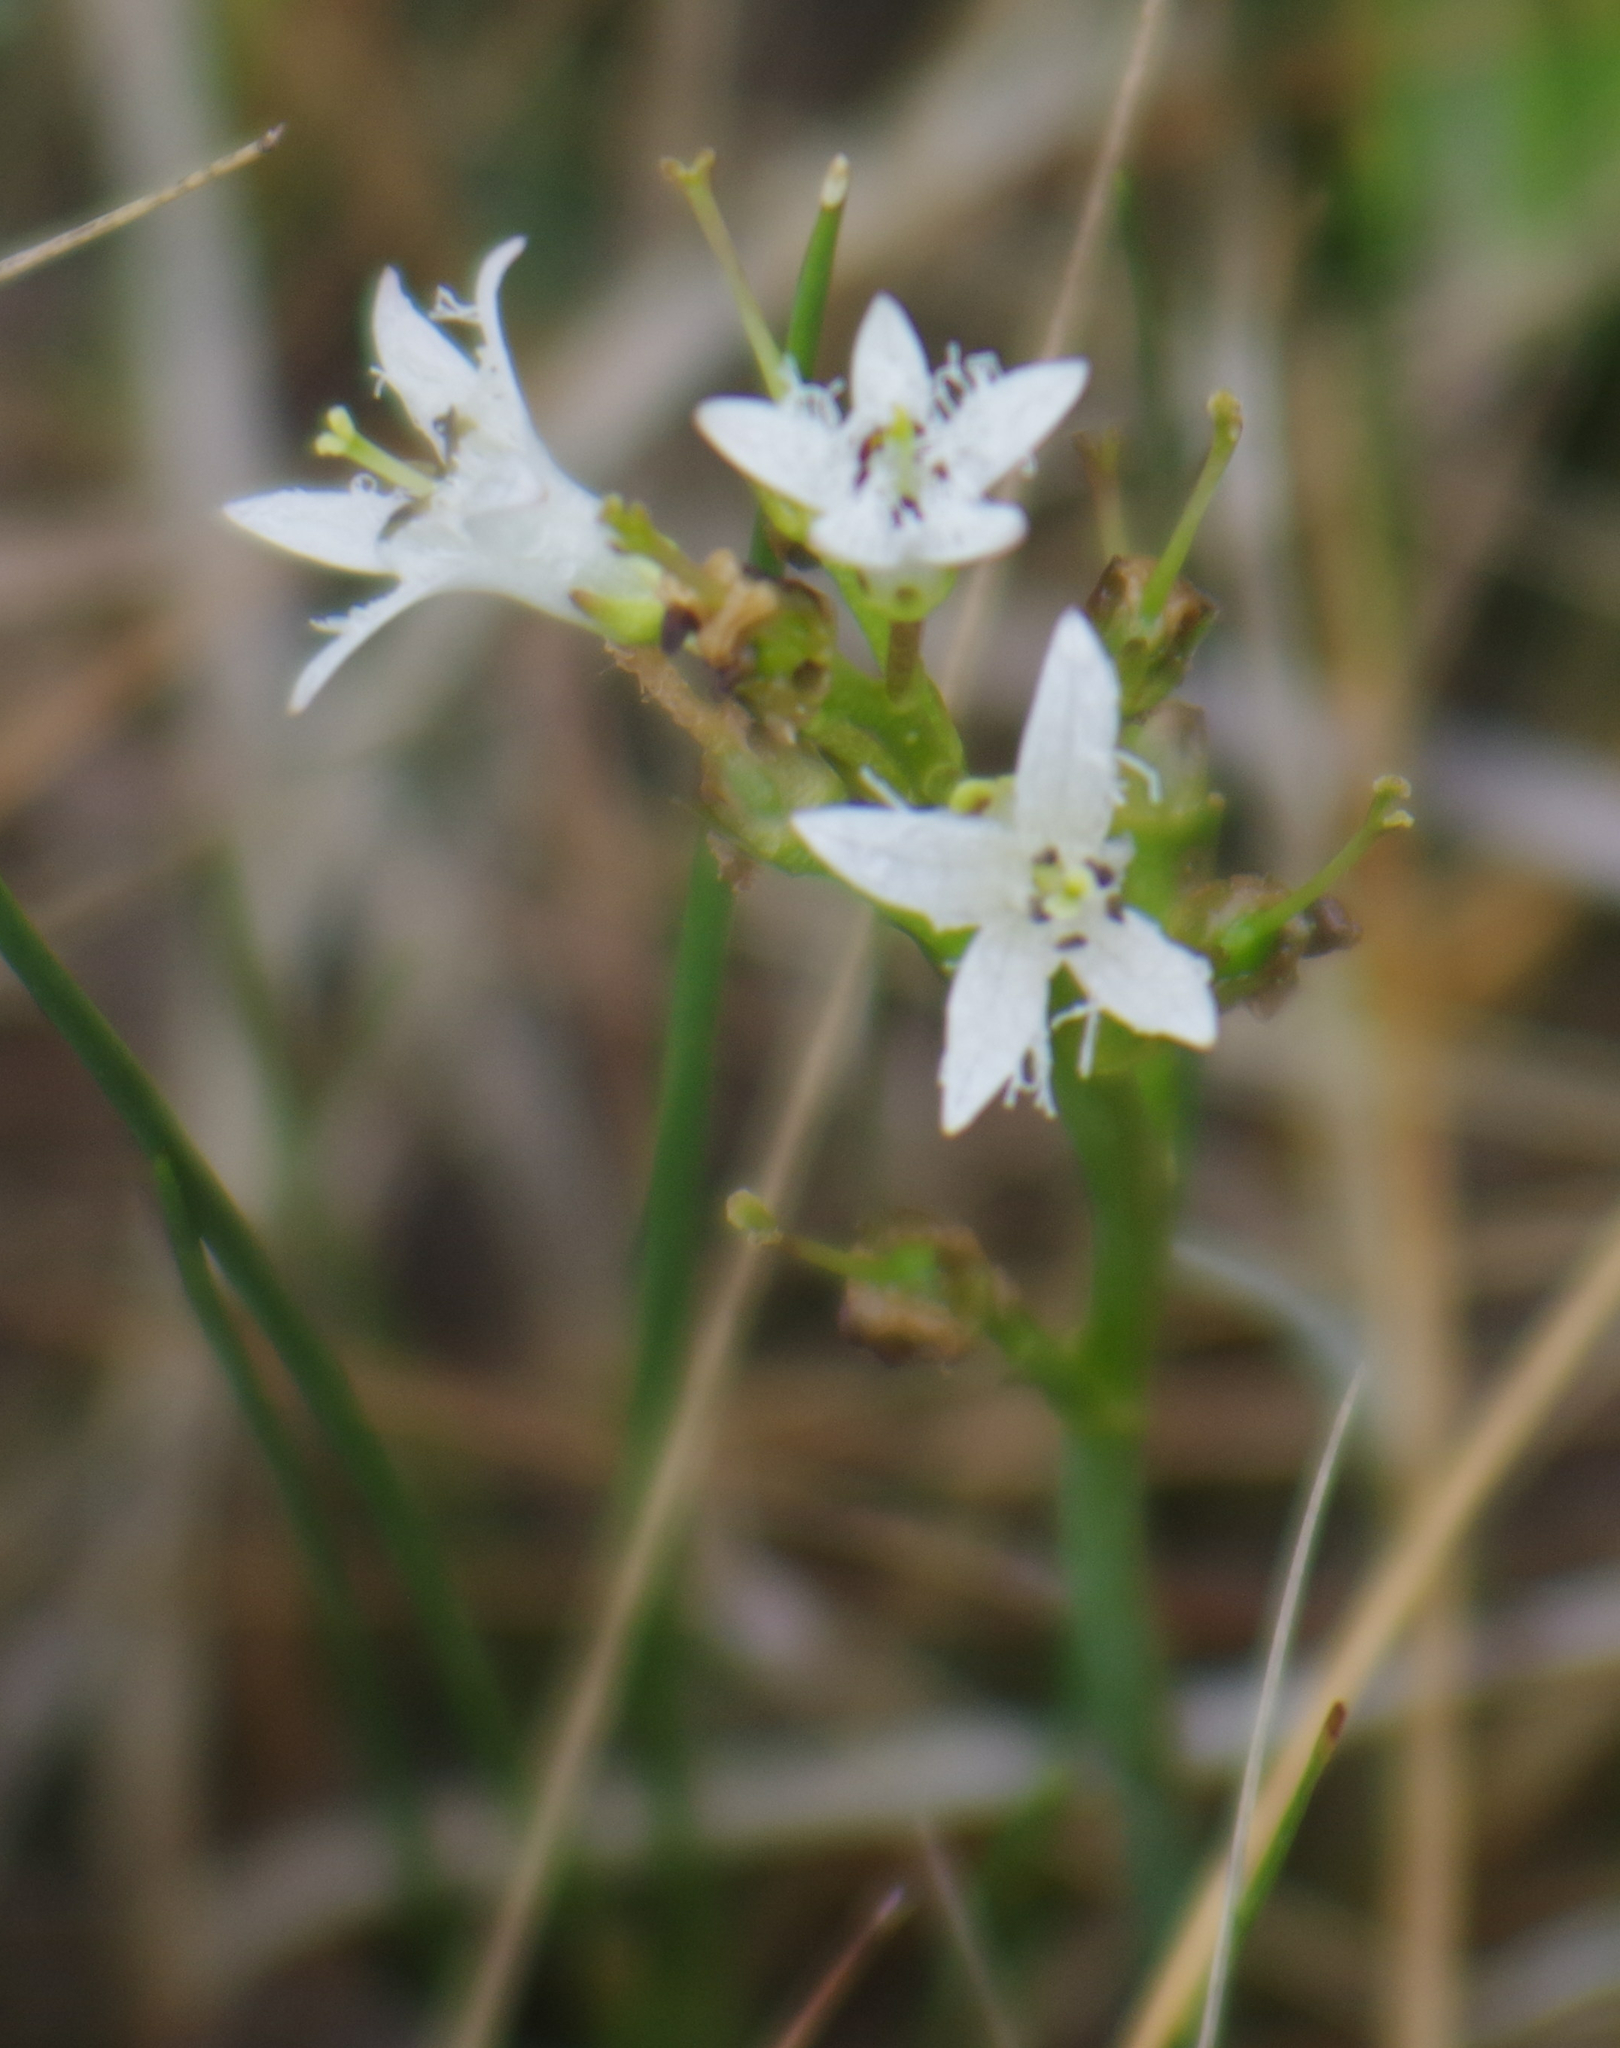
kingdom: Plantae
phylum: Tracheophyta
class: Magnoliopsida
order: Asterales
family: Menyanthaceae
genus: Menyanthes
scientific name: Menyanthes trifoliata
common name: Bogbean
